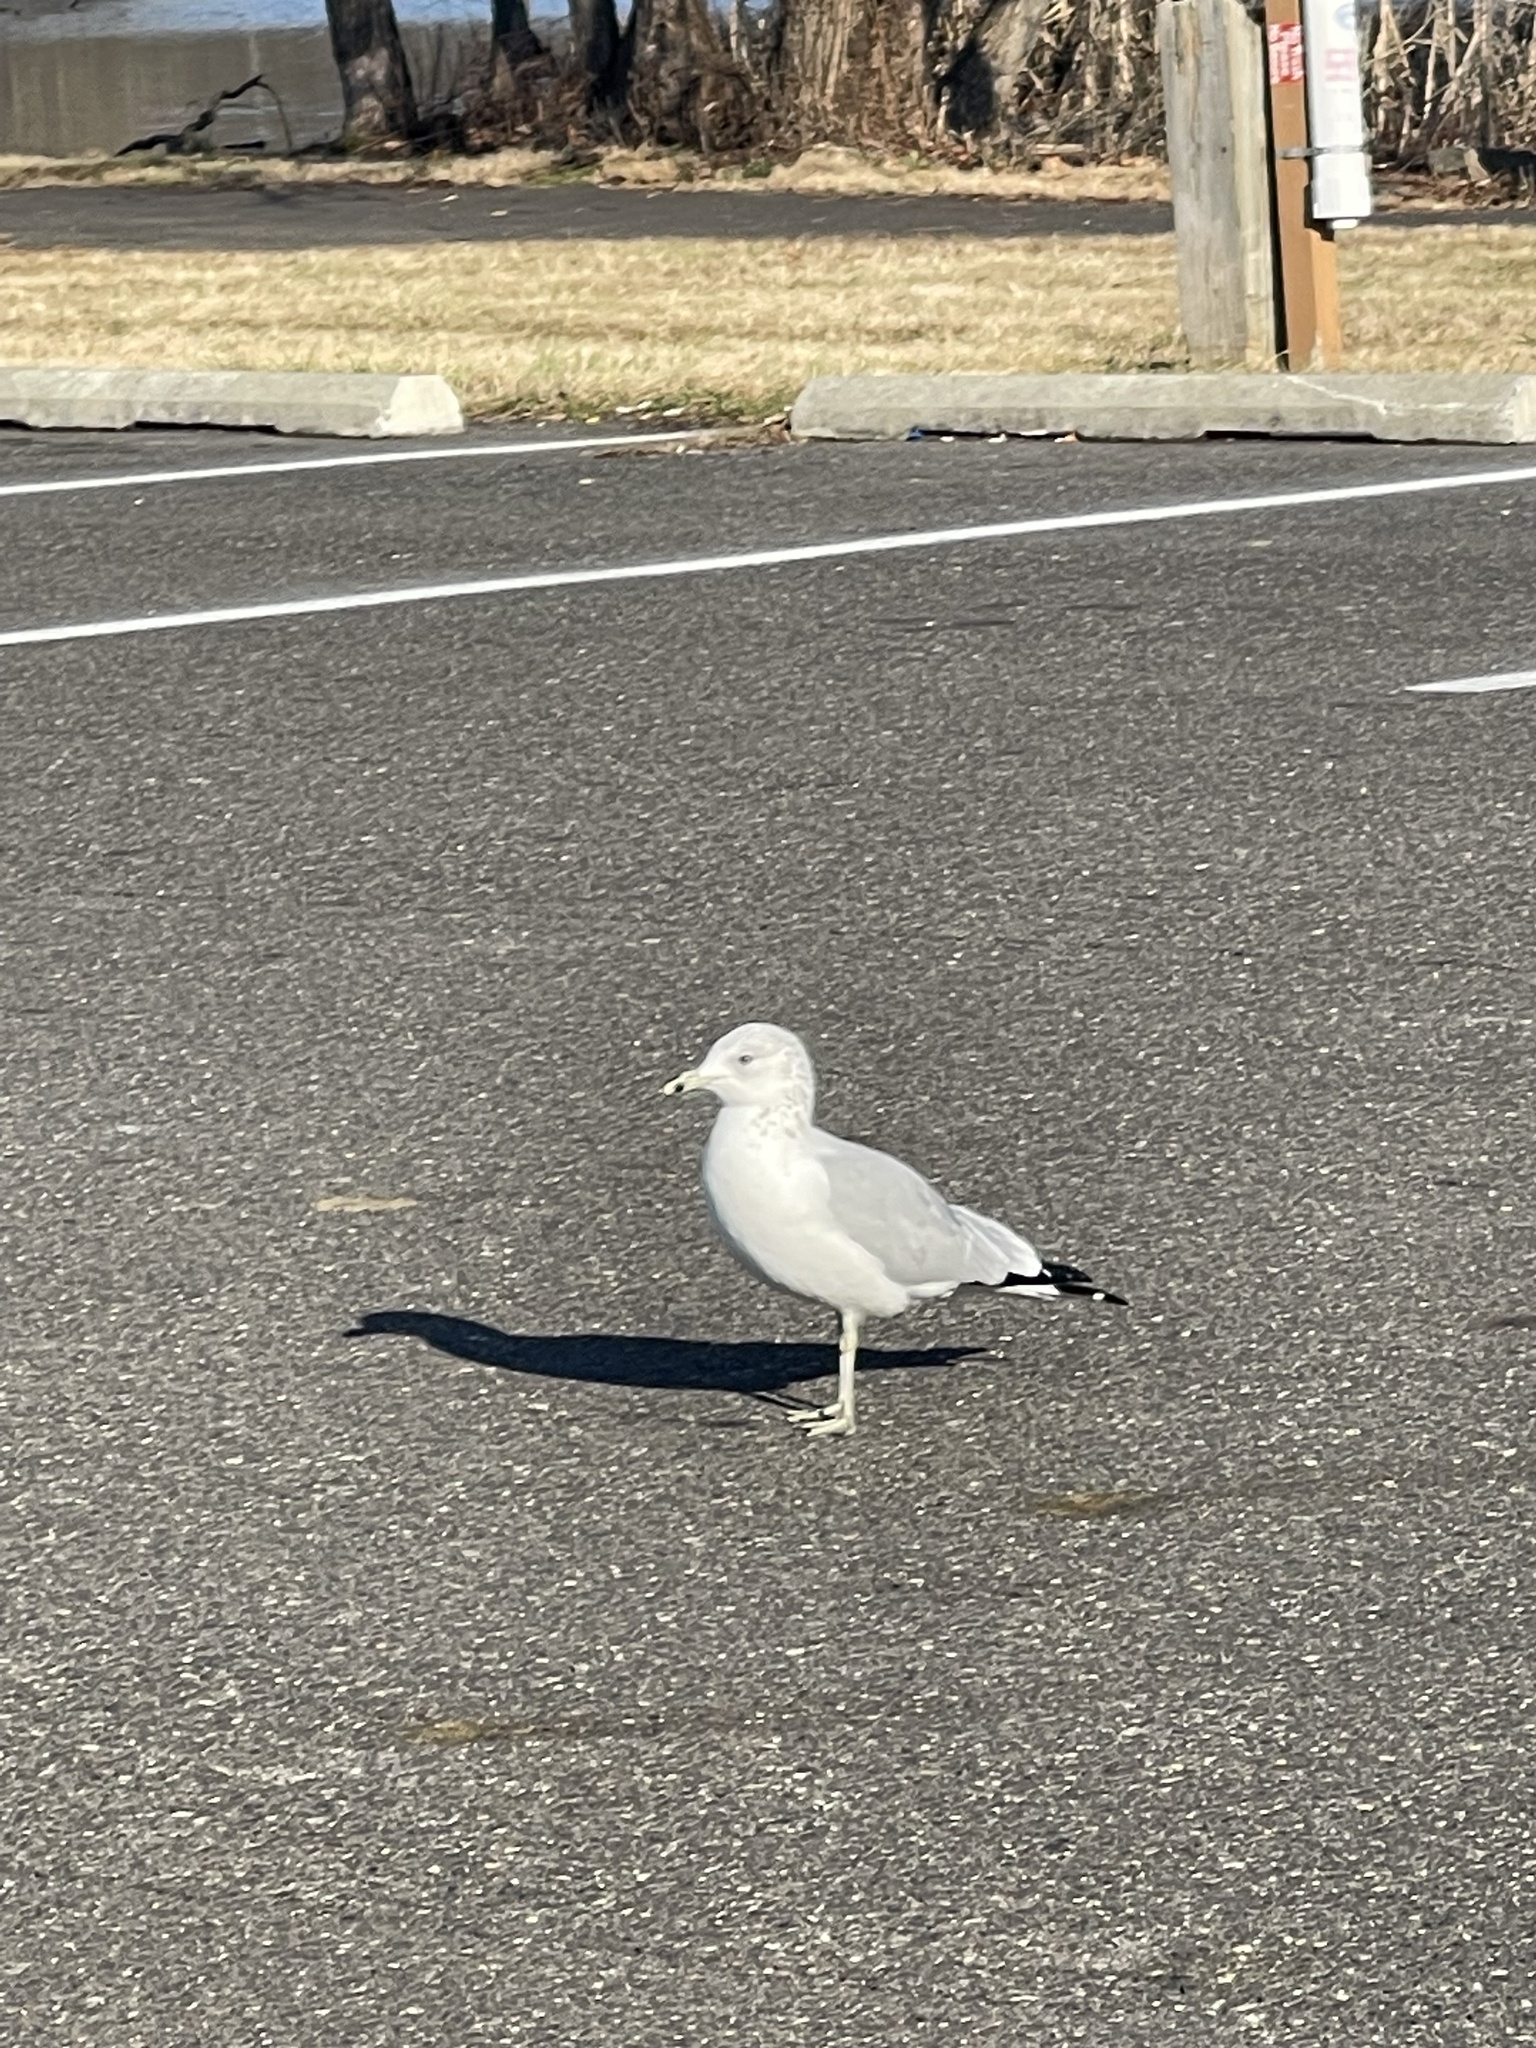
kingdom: Animalia
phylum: Chordata
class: Aves
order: Charadriiformes
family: Laridae
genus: Larus
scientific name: Larus delawarensis
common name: Ring-billed gull
